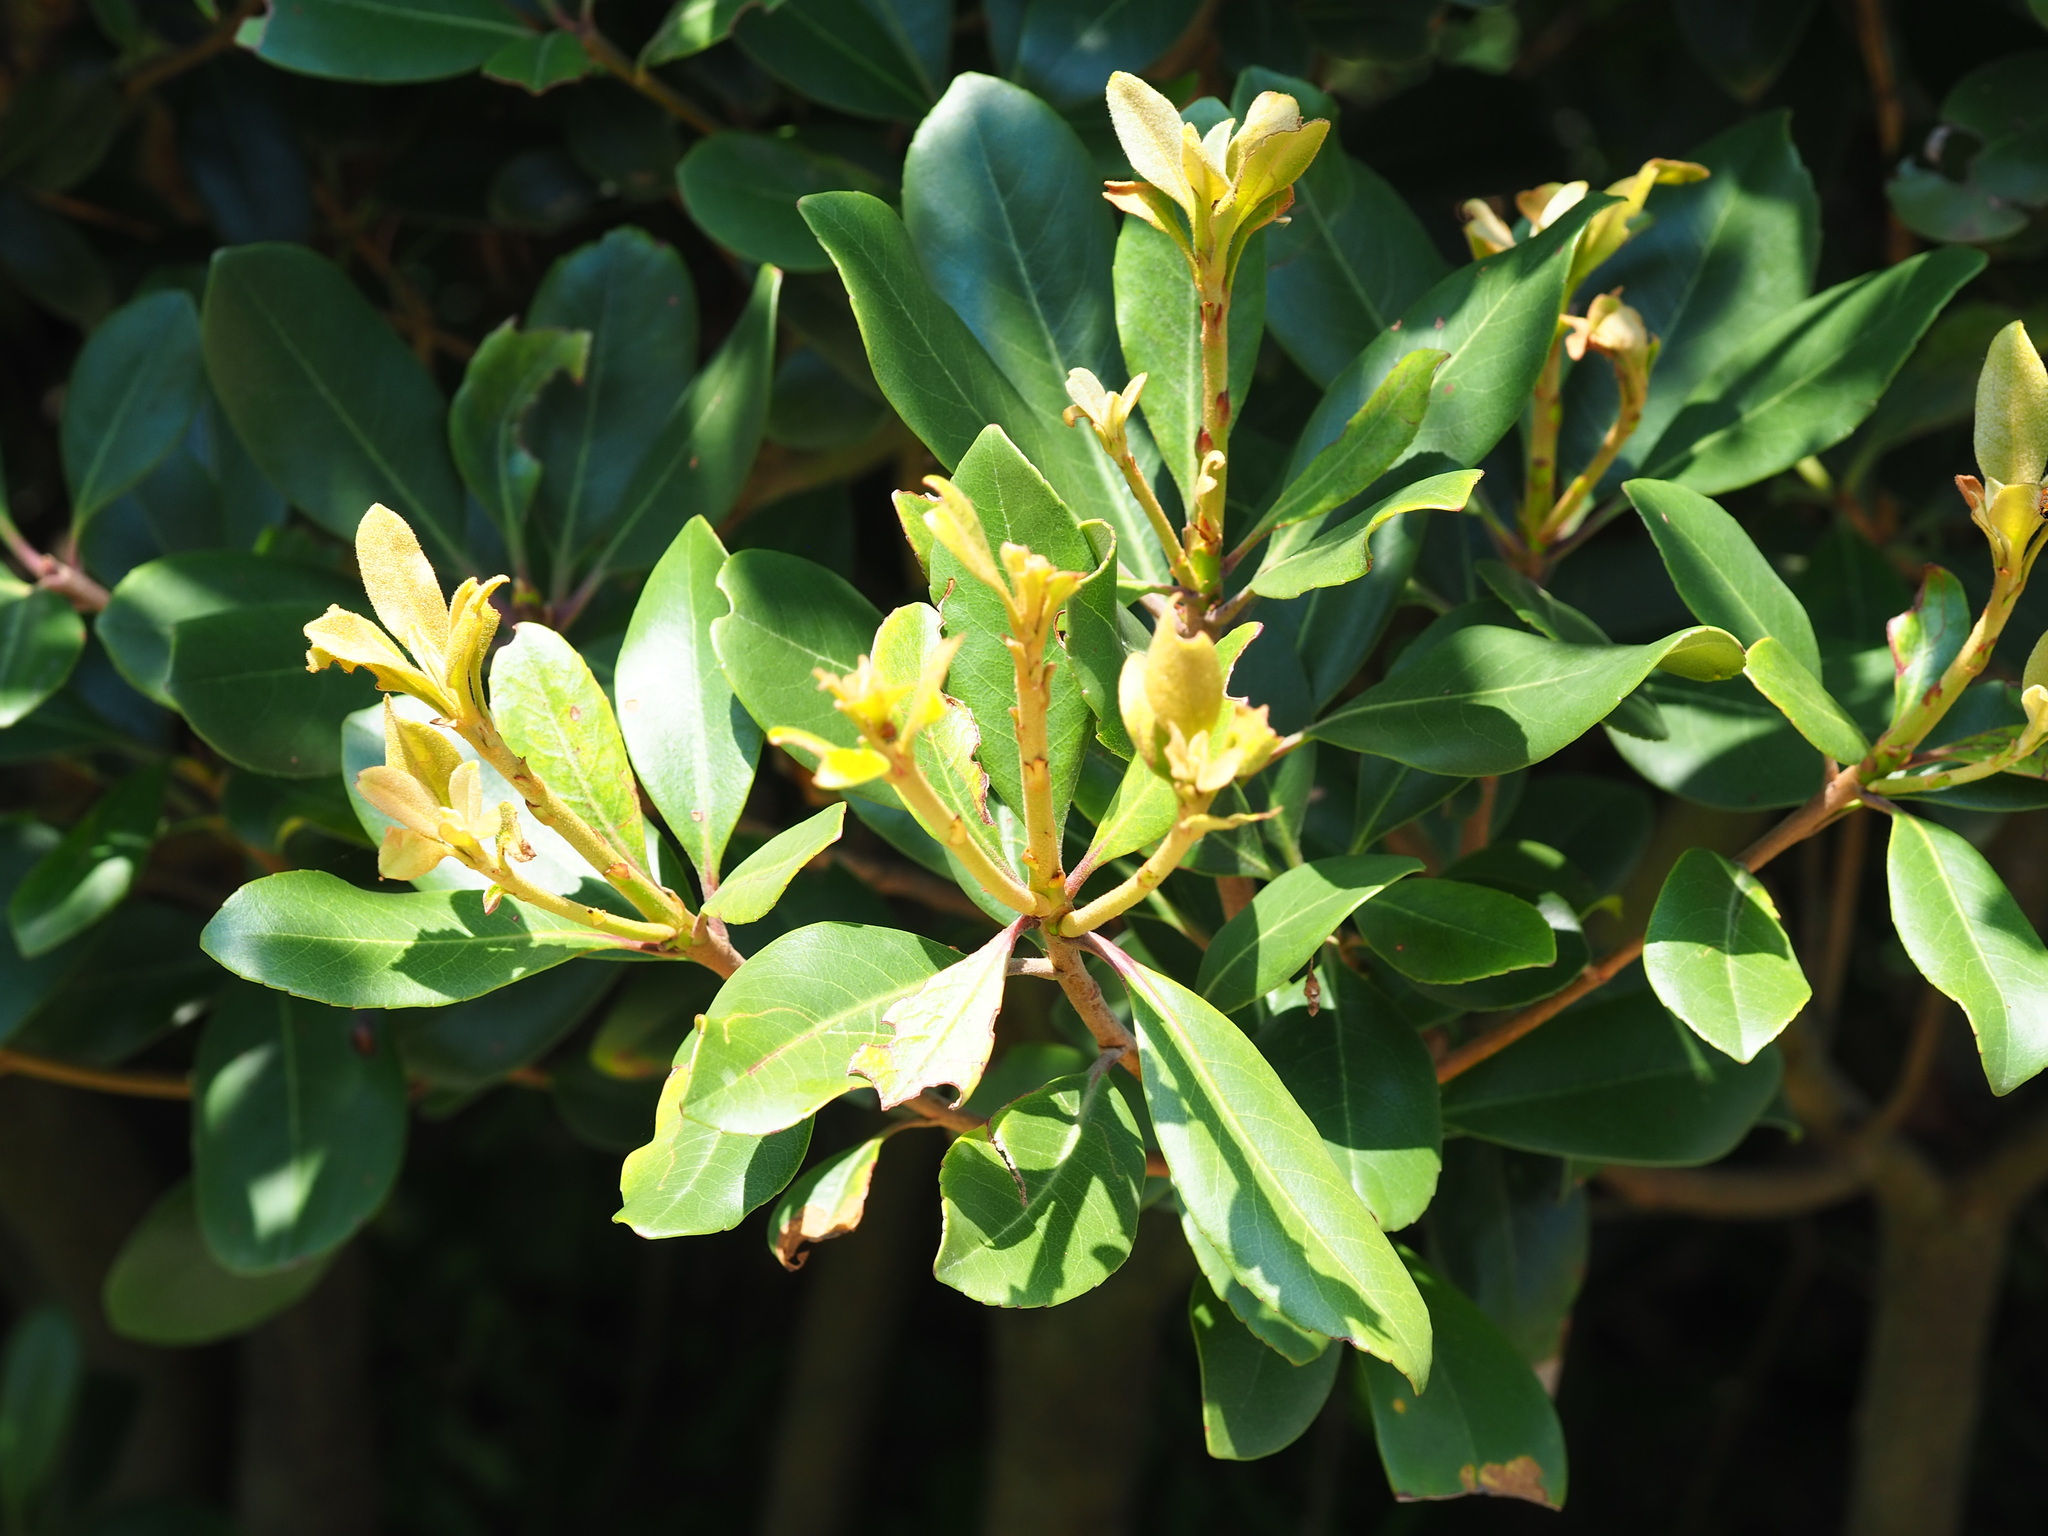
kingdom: Plantae
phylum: Tracheophyta
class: Magnoliopsida
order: Rosales
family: Rosaceae
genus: Rhaphiolepis
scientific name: Rhaphiolepis umbellata
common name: Yedda-hawthorn
